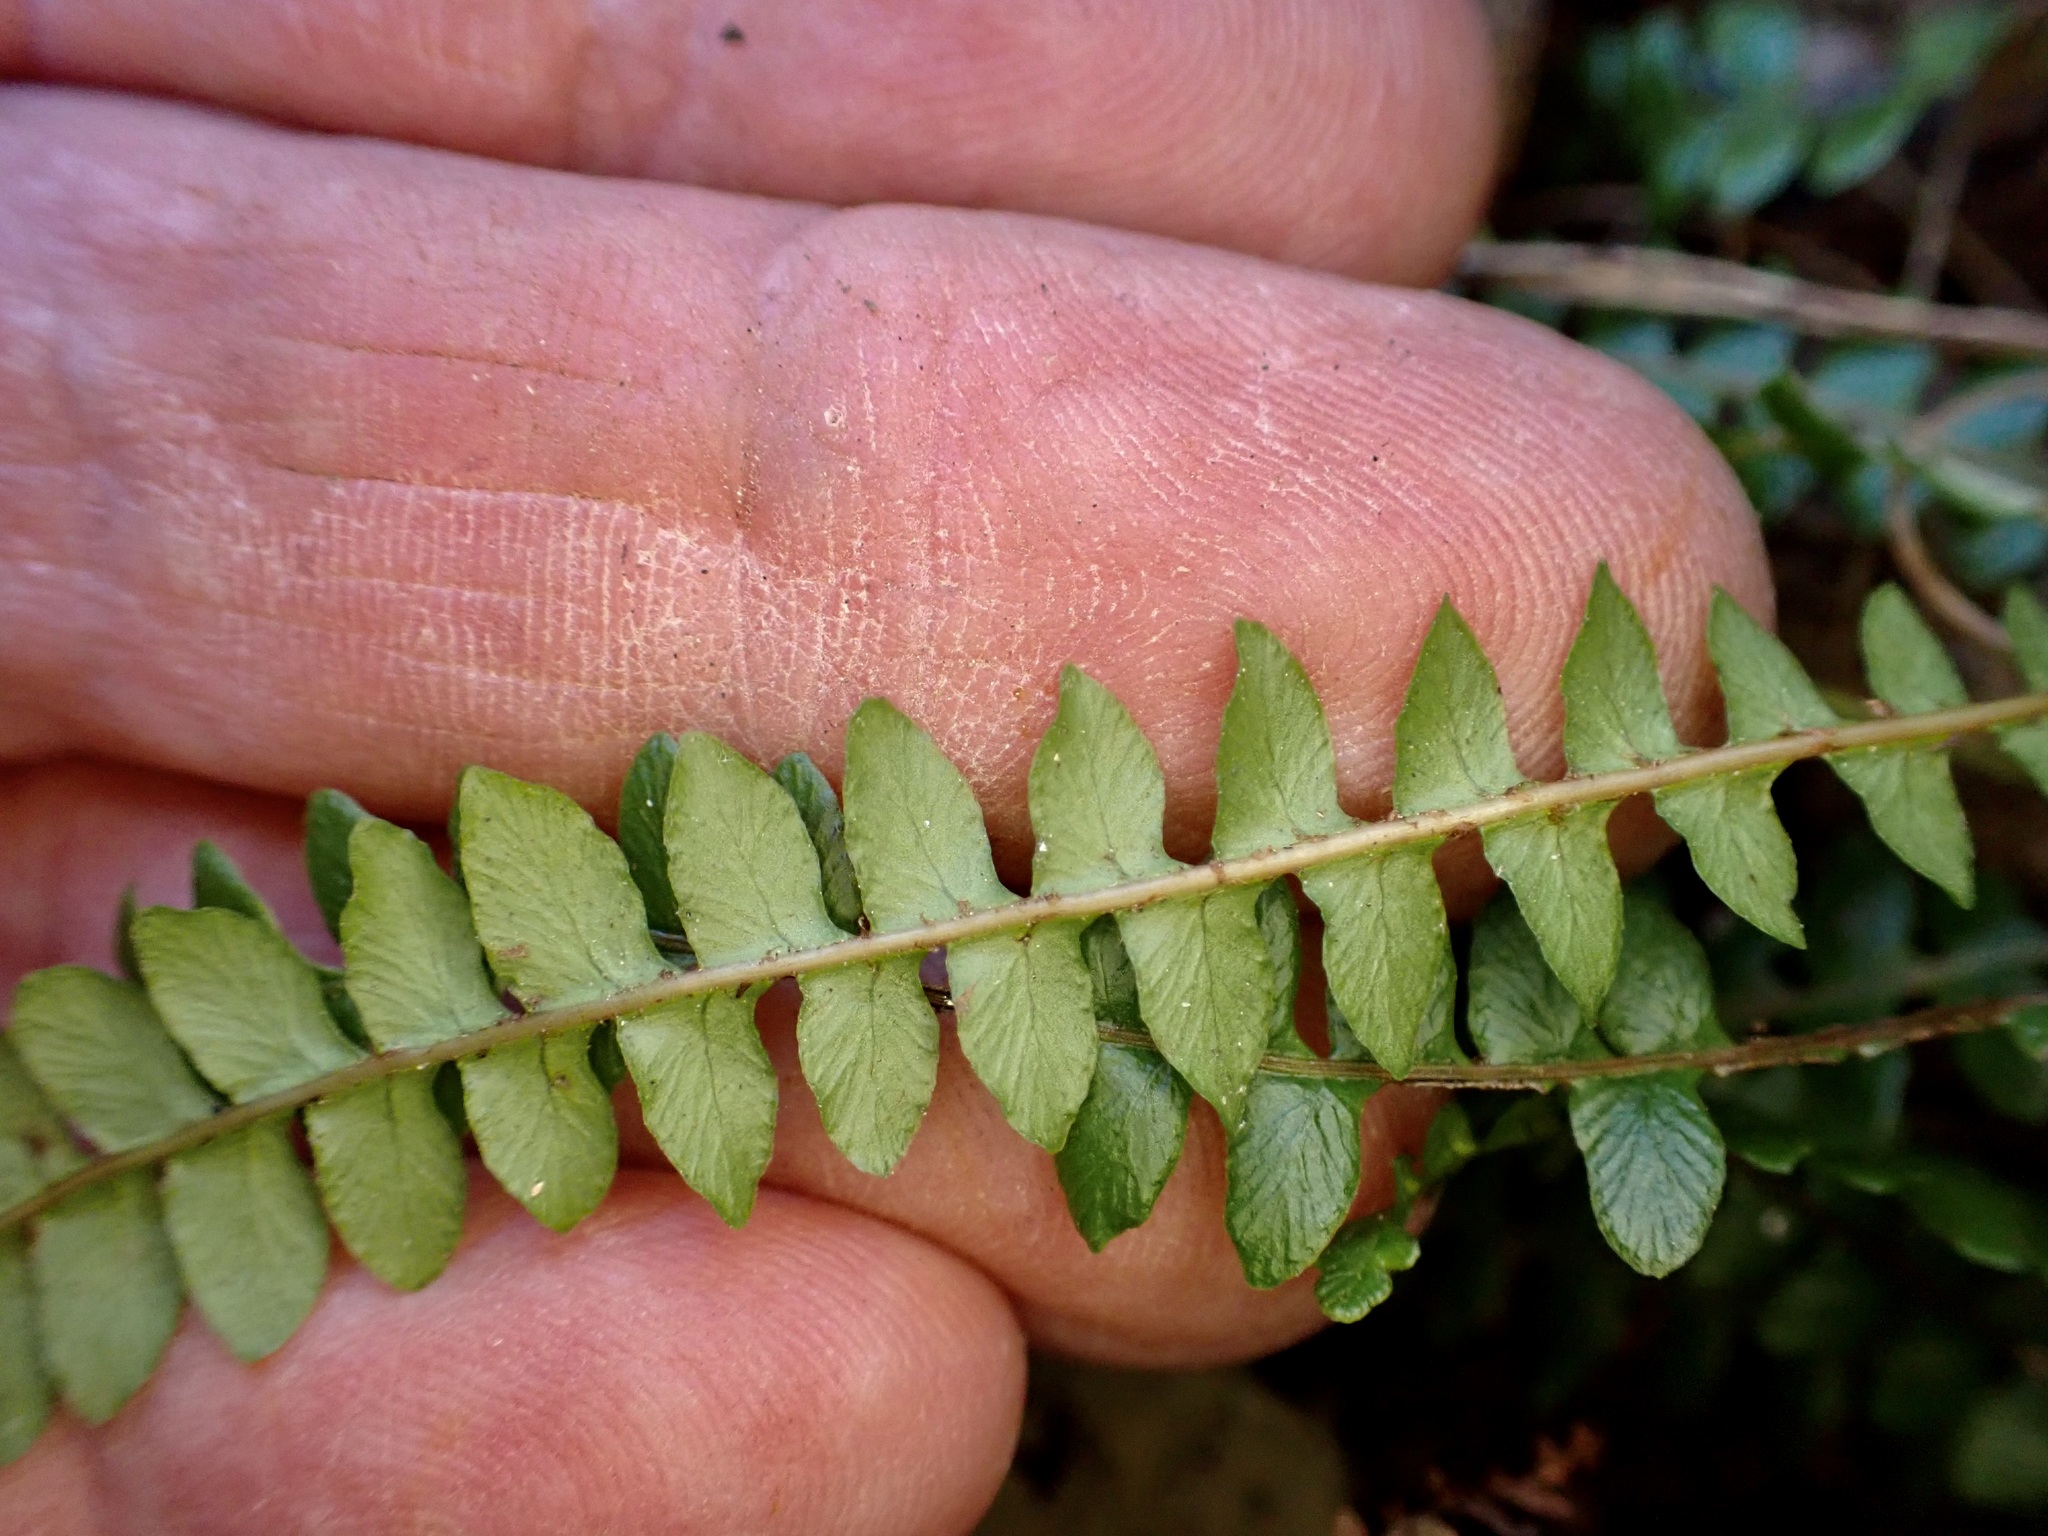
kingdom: Plantae
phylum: Tracheophyta
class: Polypodiopsida
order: Polypodiales
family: Blechnaceae
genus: Austroblechnum
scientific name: Austroblechnum penna-marina
